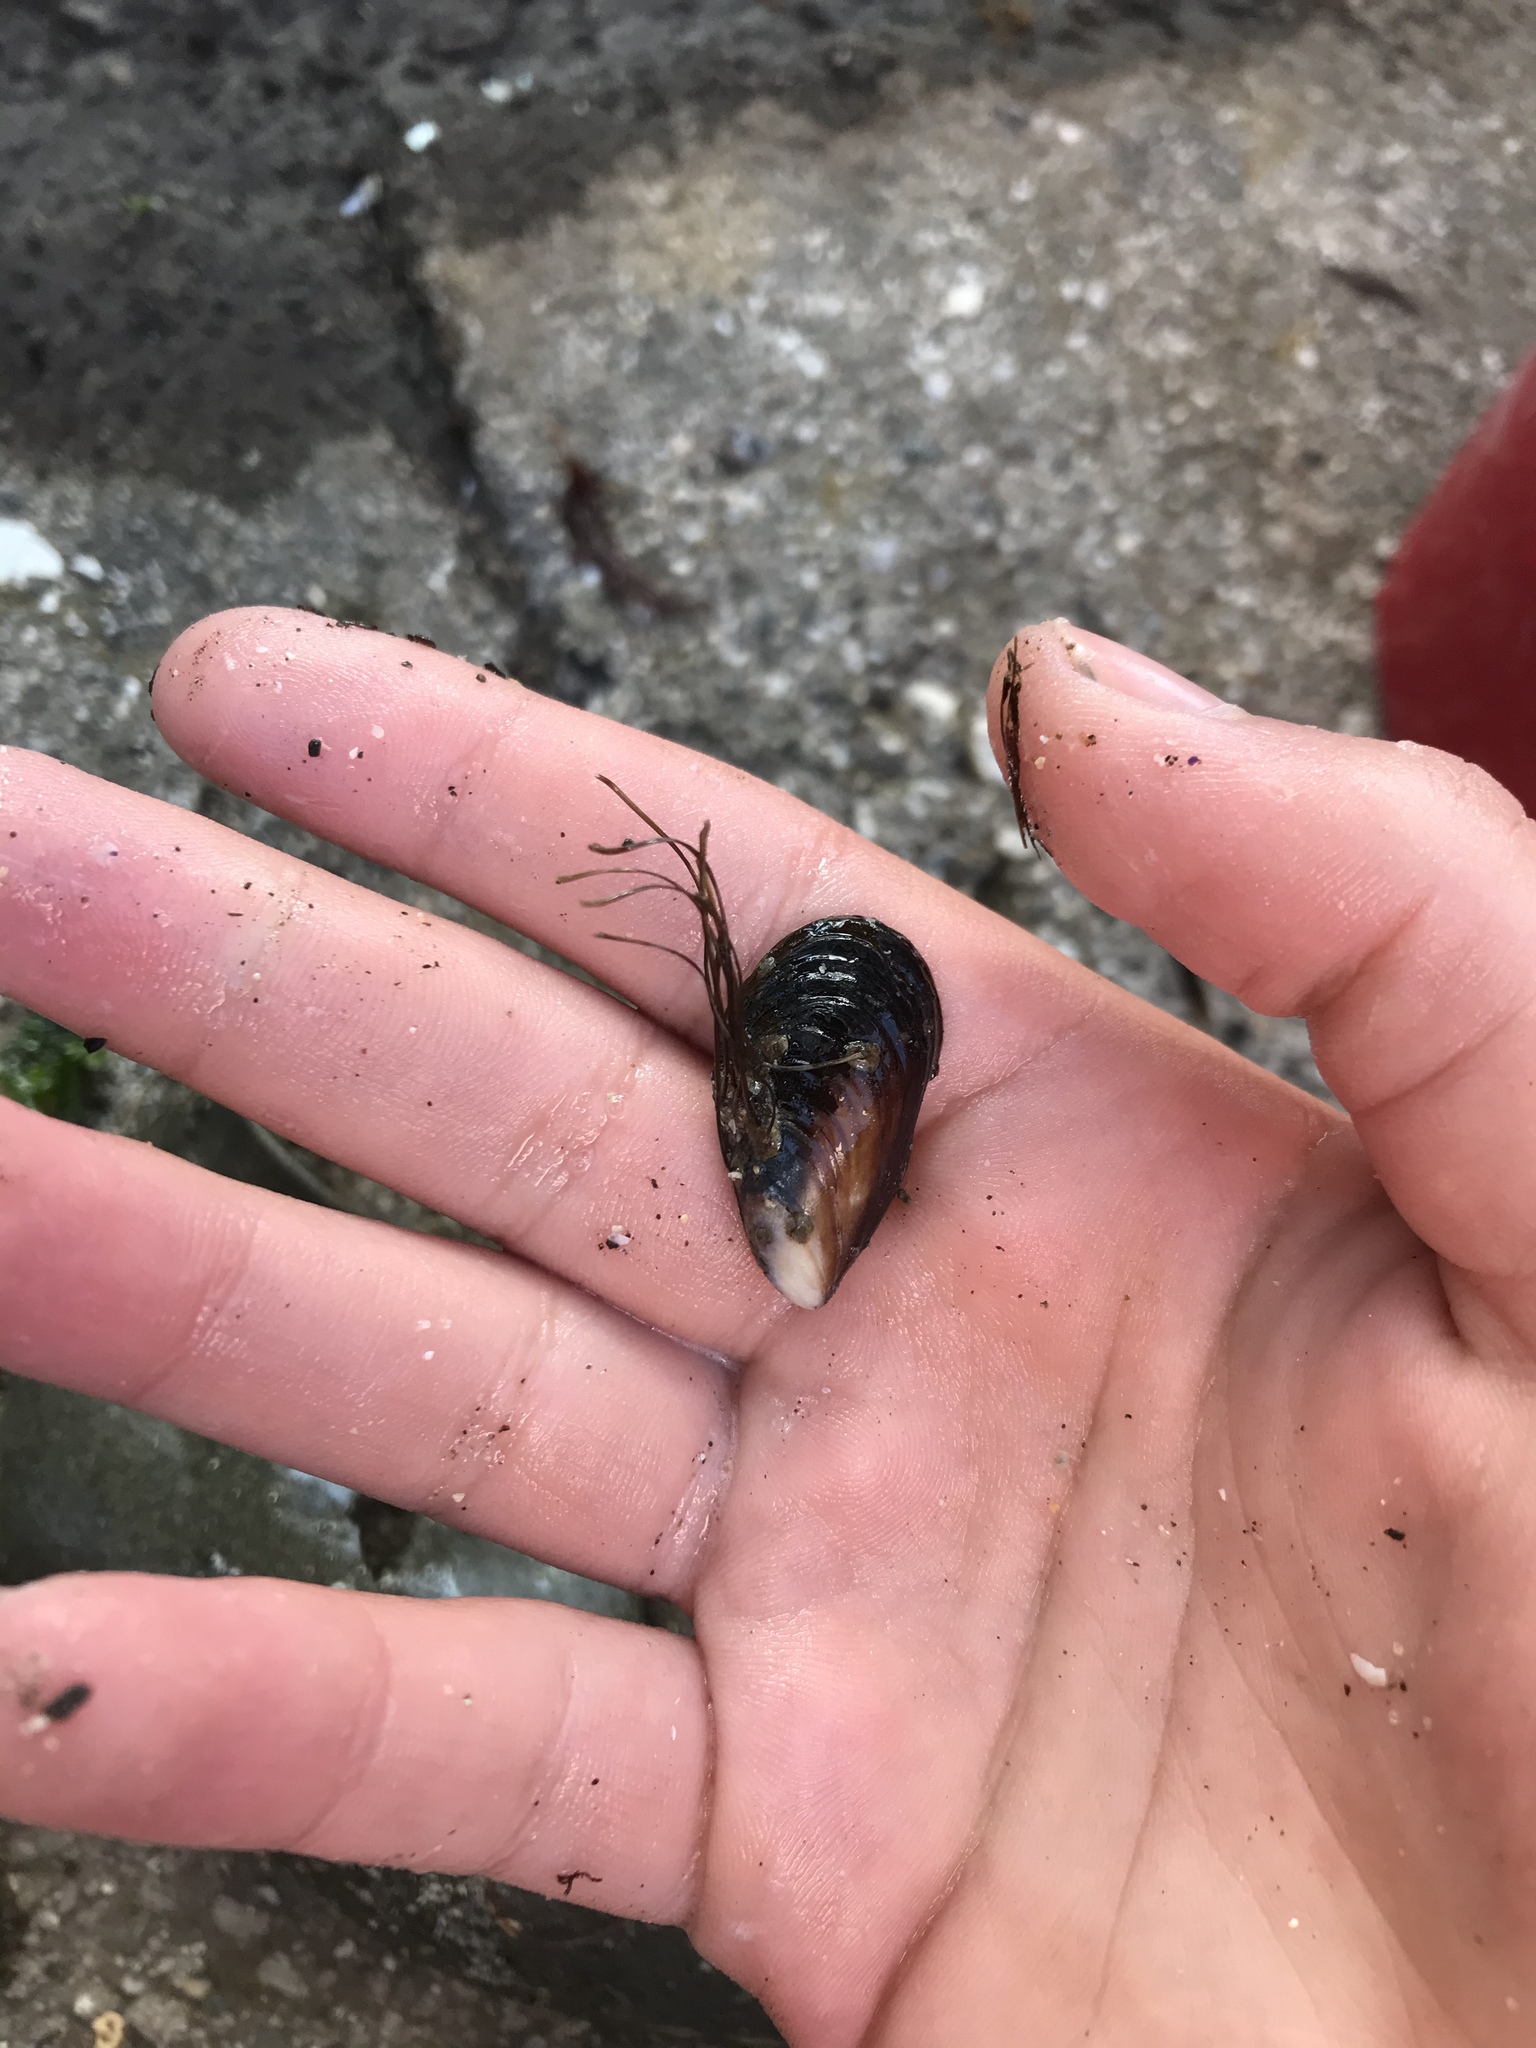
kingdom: Animalia
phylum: Mollusca
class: Bivalvia
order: Mytilida
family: Mytilidae
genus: Mytilus
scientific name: Mytilus californianus
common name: California mussel
